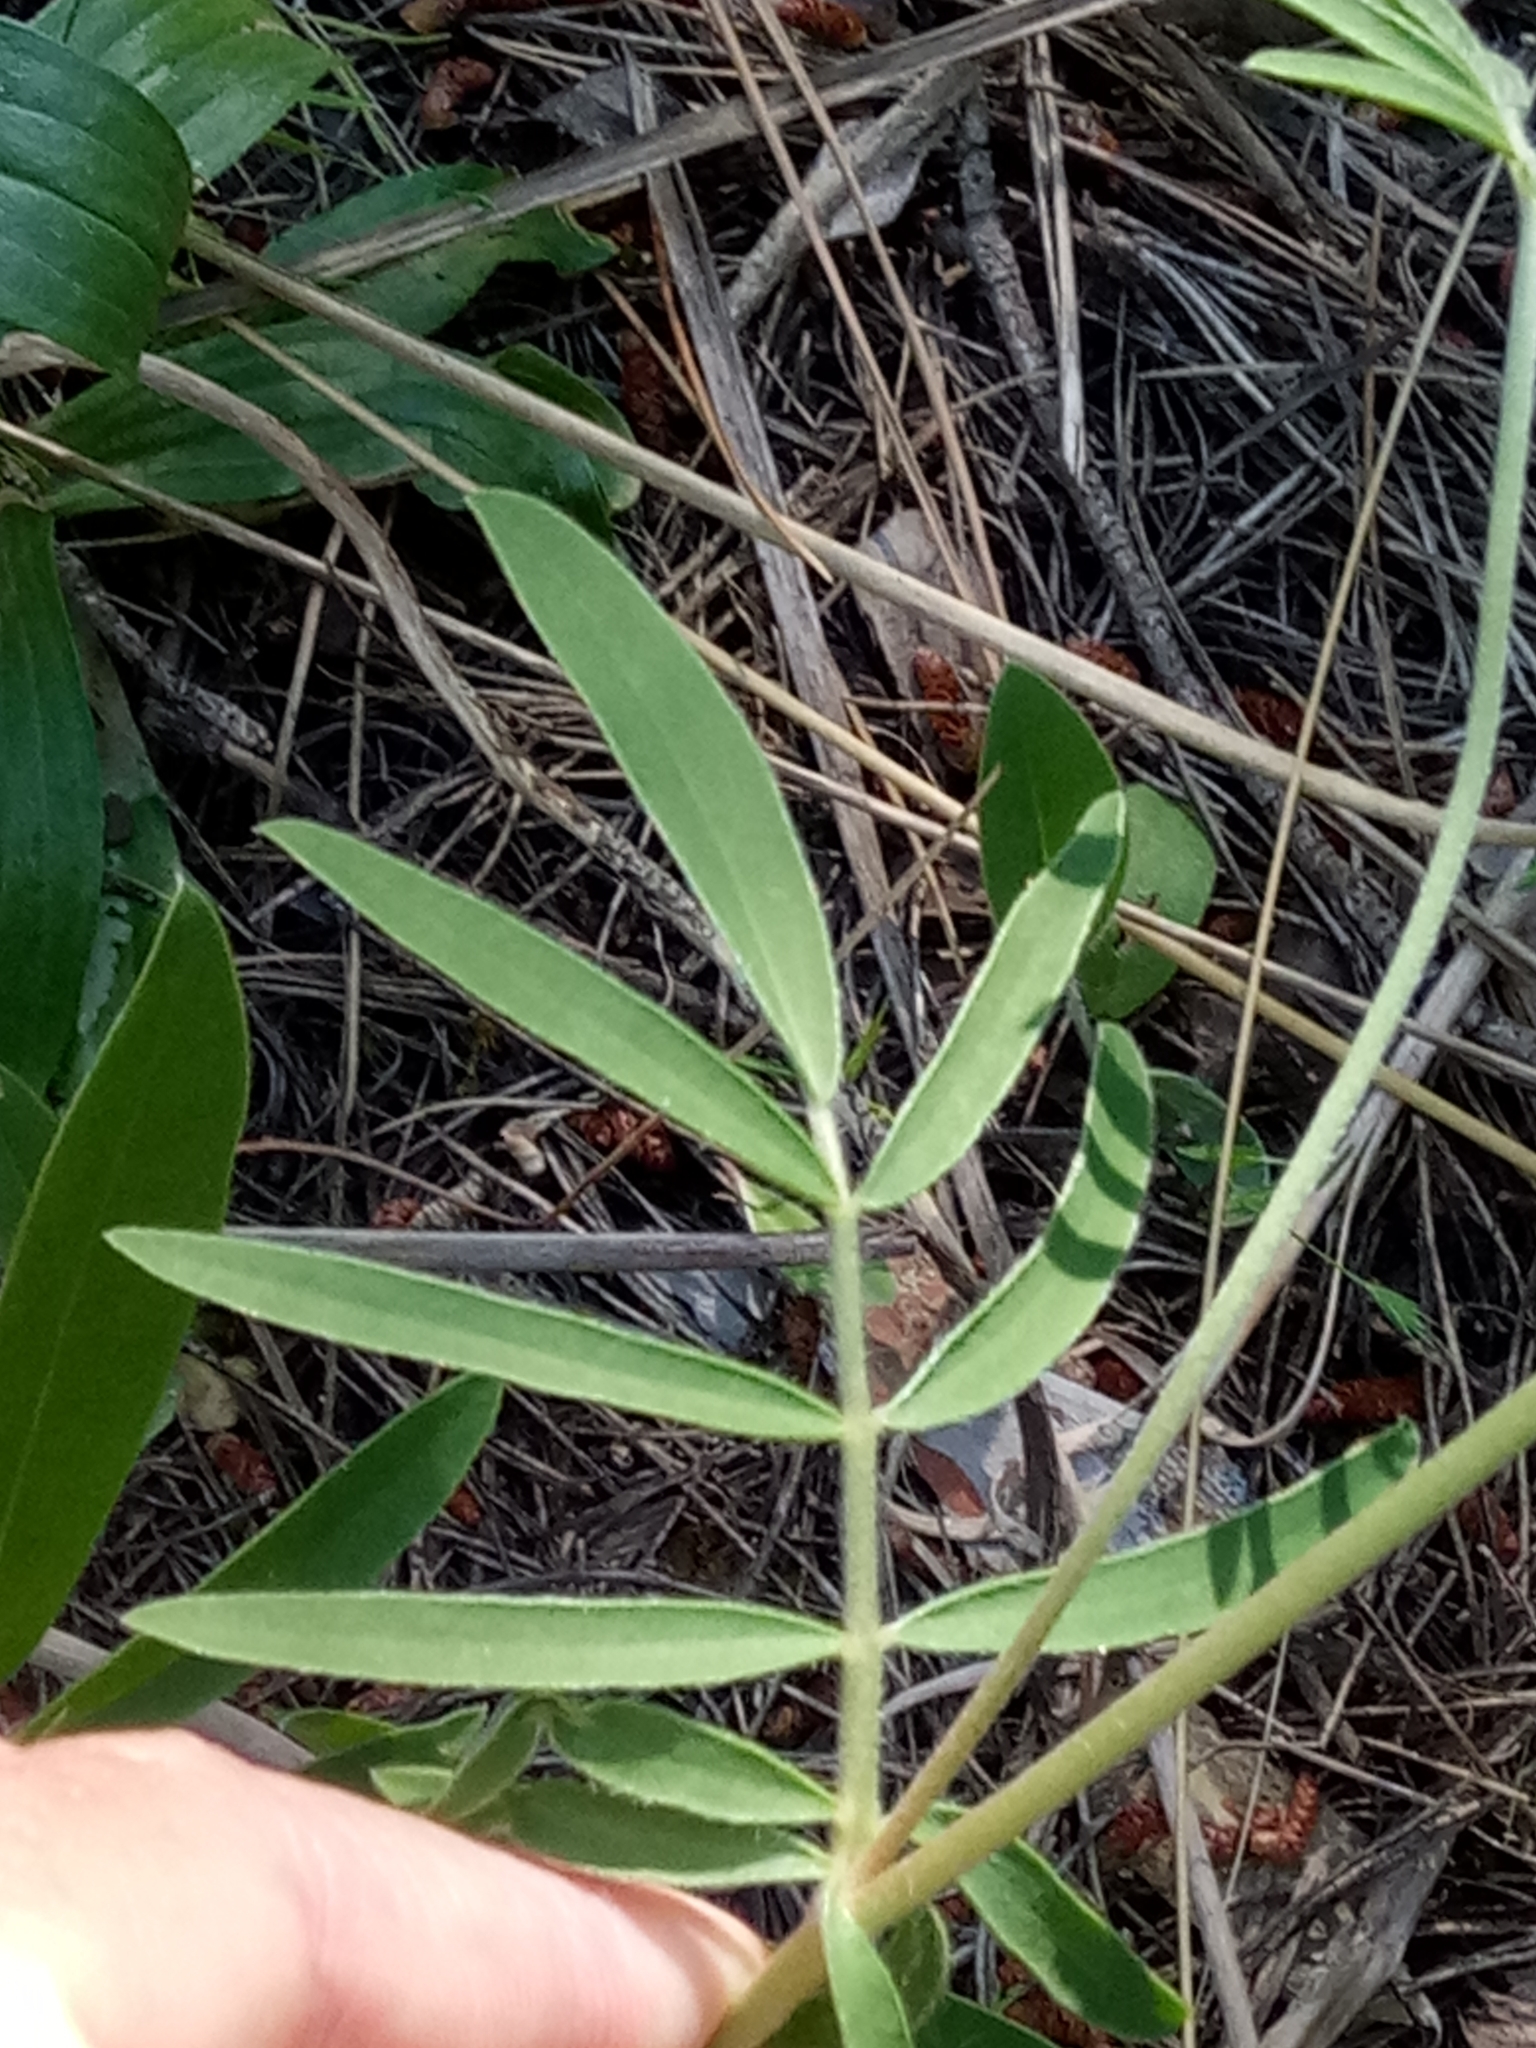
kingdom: Plantae
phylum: Tracheophyta
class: Magnoliopsida
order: Fabales
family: Fabaceae
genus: Anthyllis
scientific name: Anthyllis vulneraria
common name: Kidney vetch
